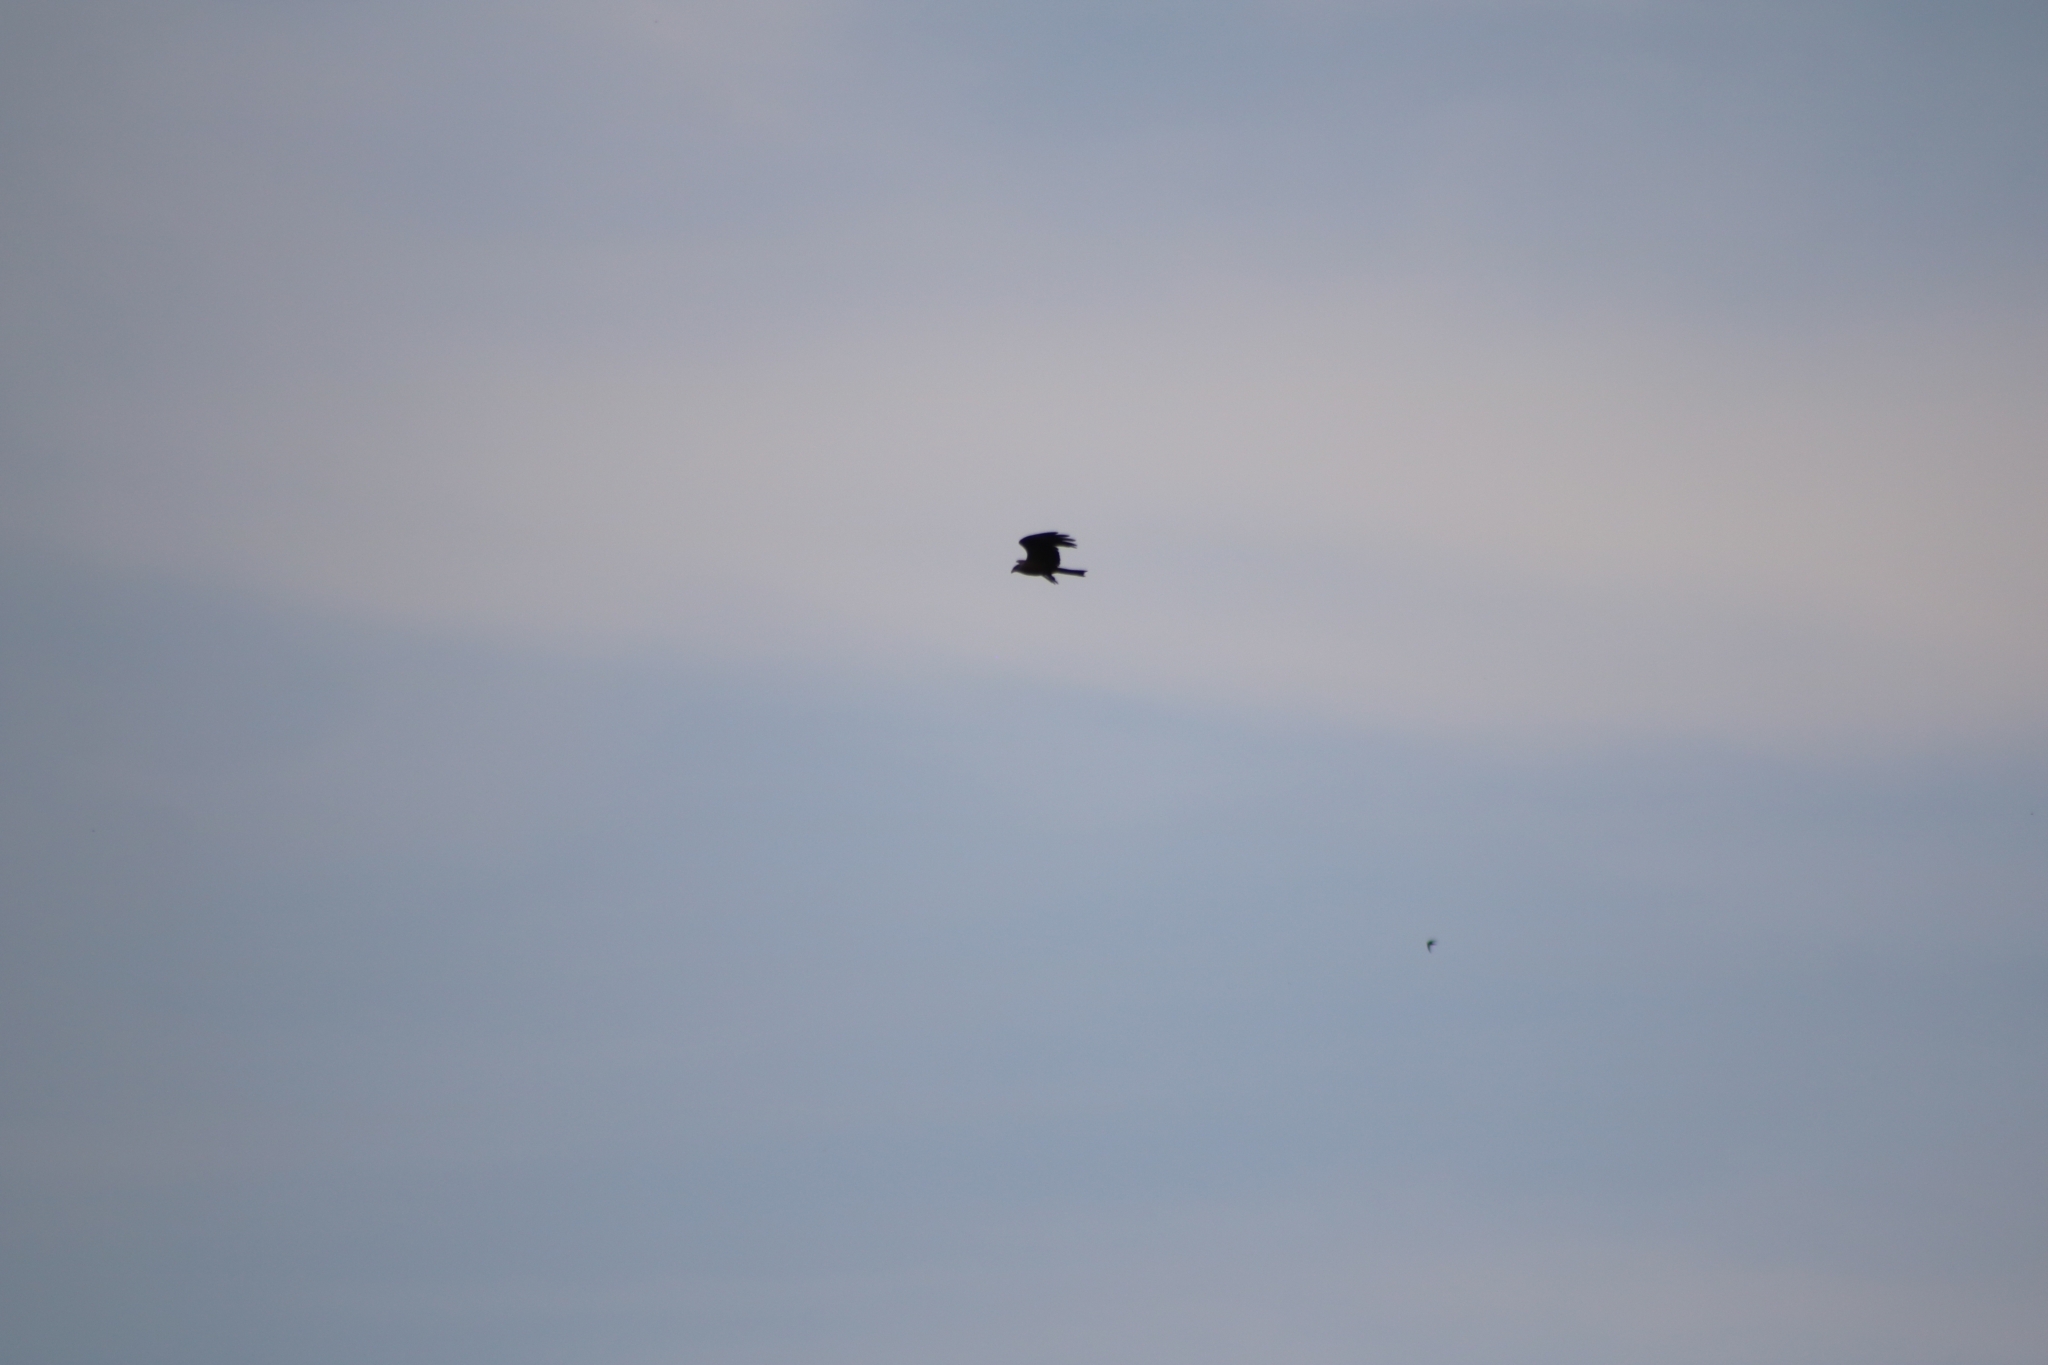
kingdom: Animalia
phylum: Chordata
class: Aves
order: Accipitriformes
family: Accipitridae
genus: Milvus
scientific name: Milvus migrans
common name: Black kite
